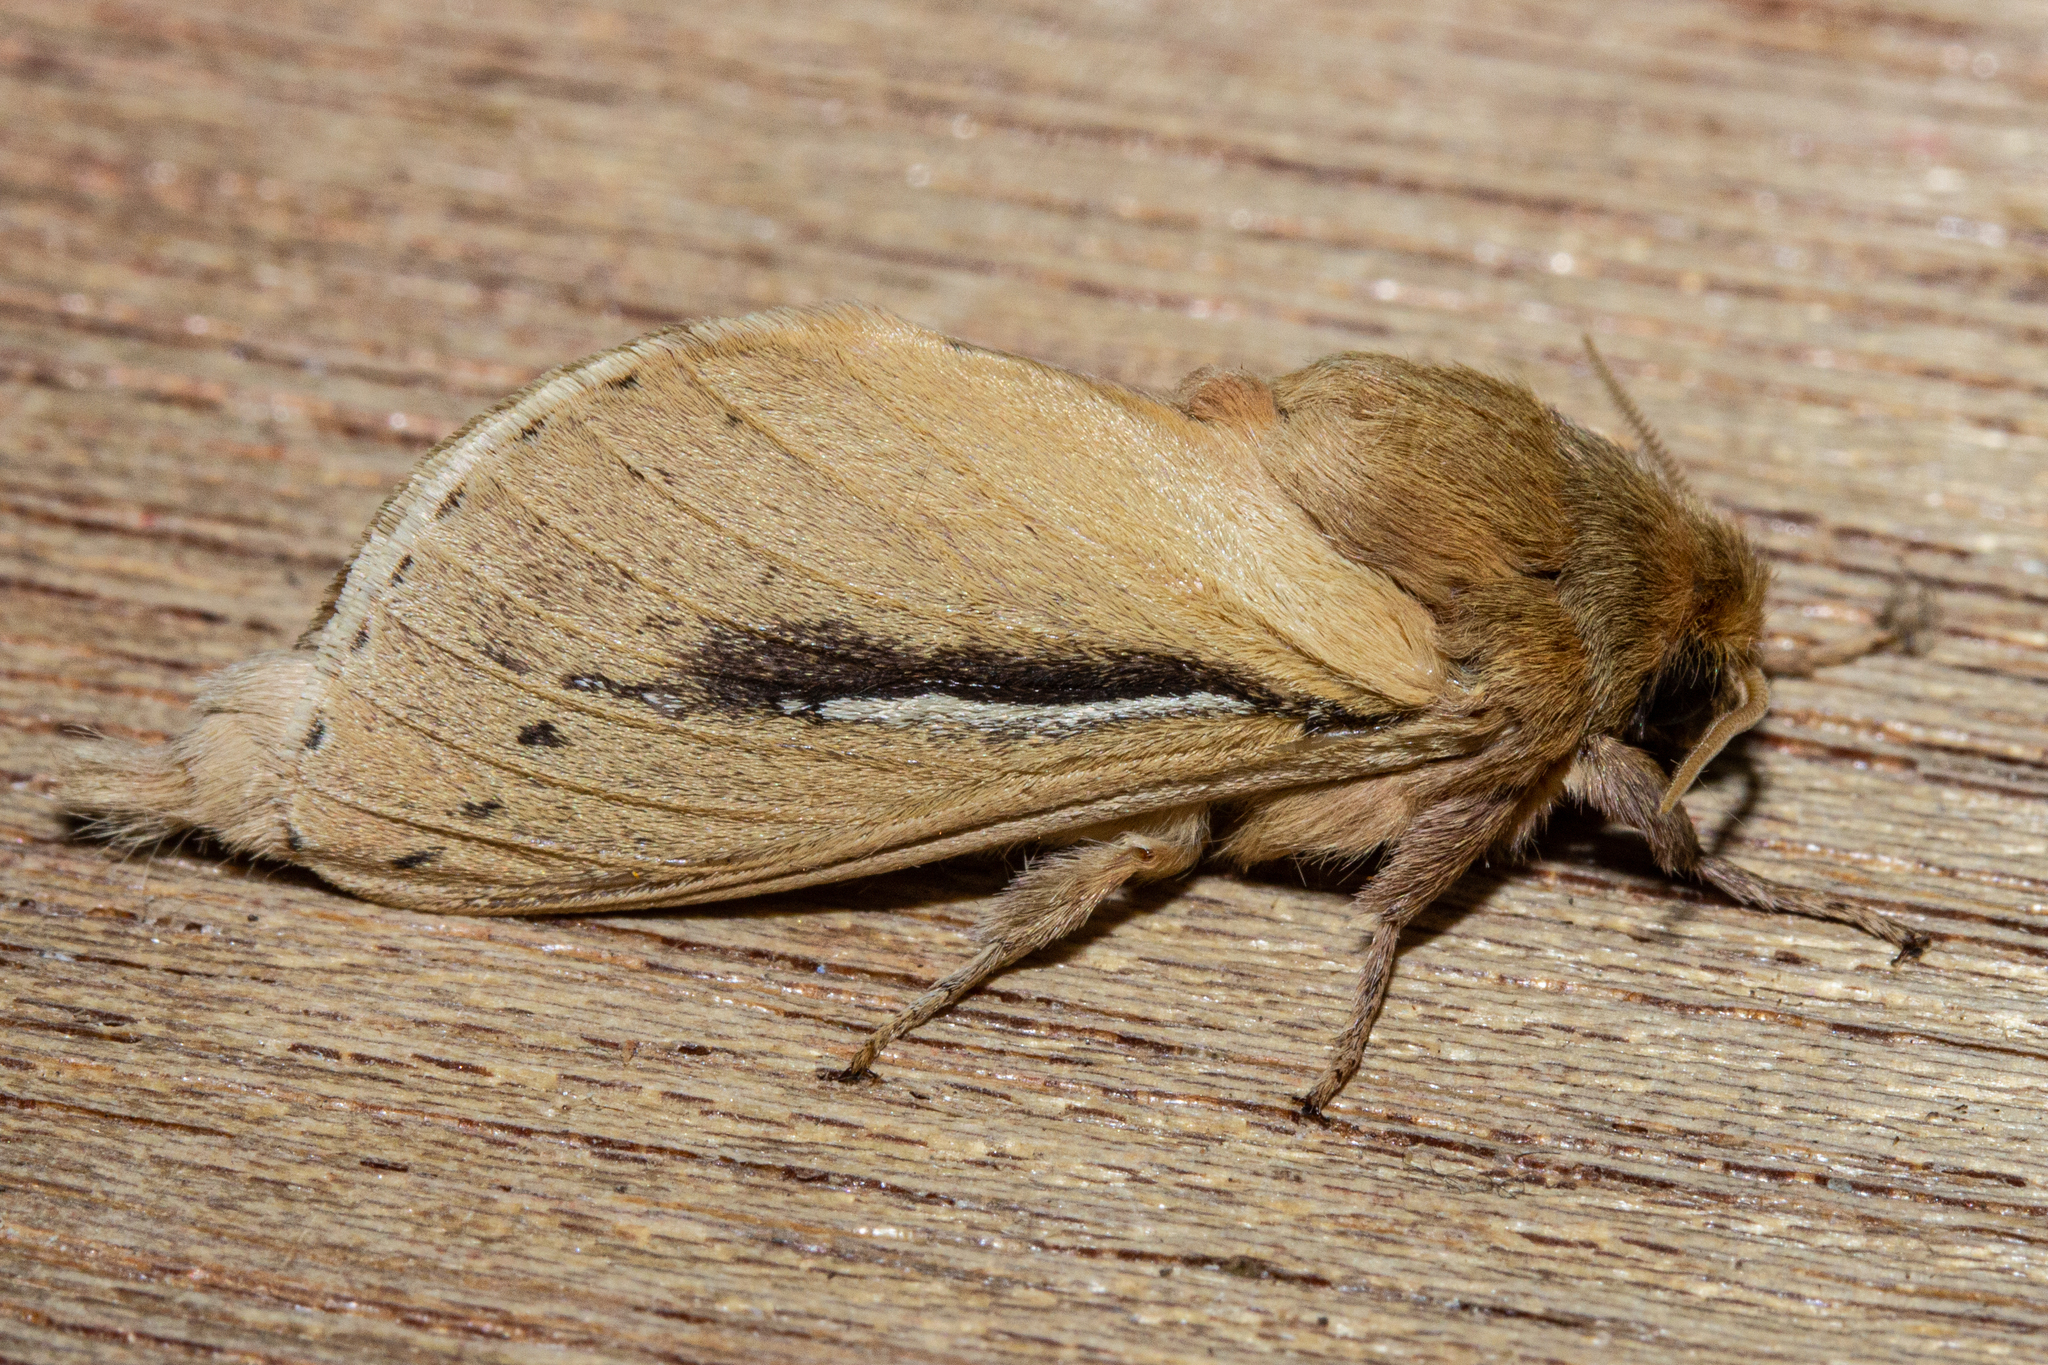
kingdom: Animalia
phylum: Arthropoda
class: Insecta
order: Lepidoptera
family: Hepialidae
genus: Wiseana
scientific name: Wiseana umbraculatus
